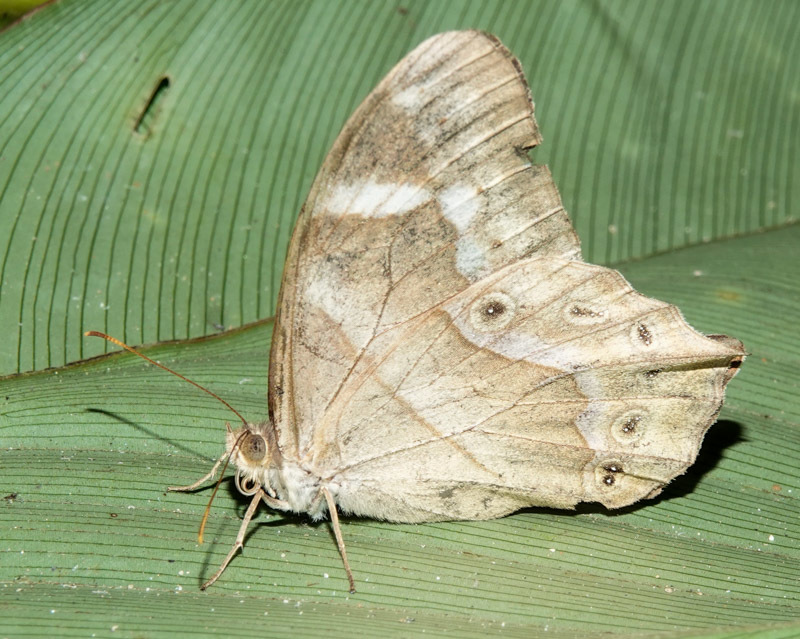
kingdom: Animalia
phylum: Arthropoda
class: Insecta
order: Lepidoptera
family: Nymphalidae
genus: Lethe
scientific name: Lethe mekara
